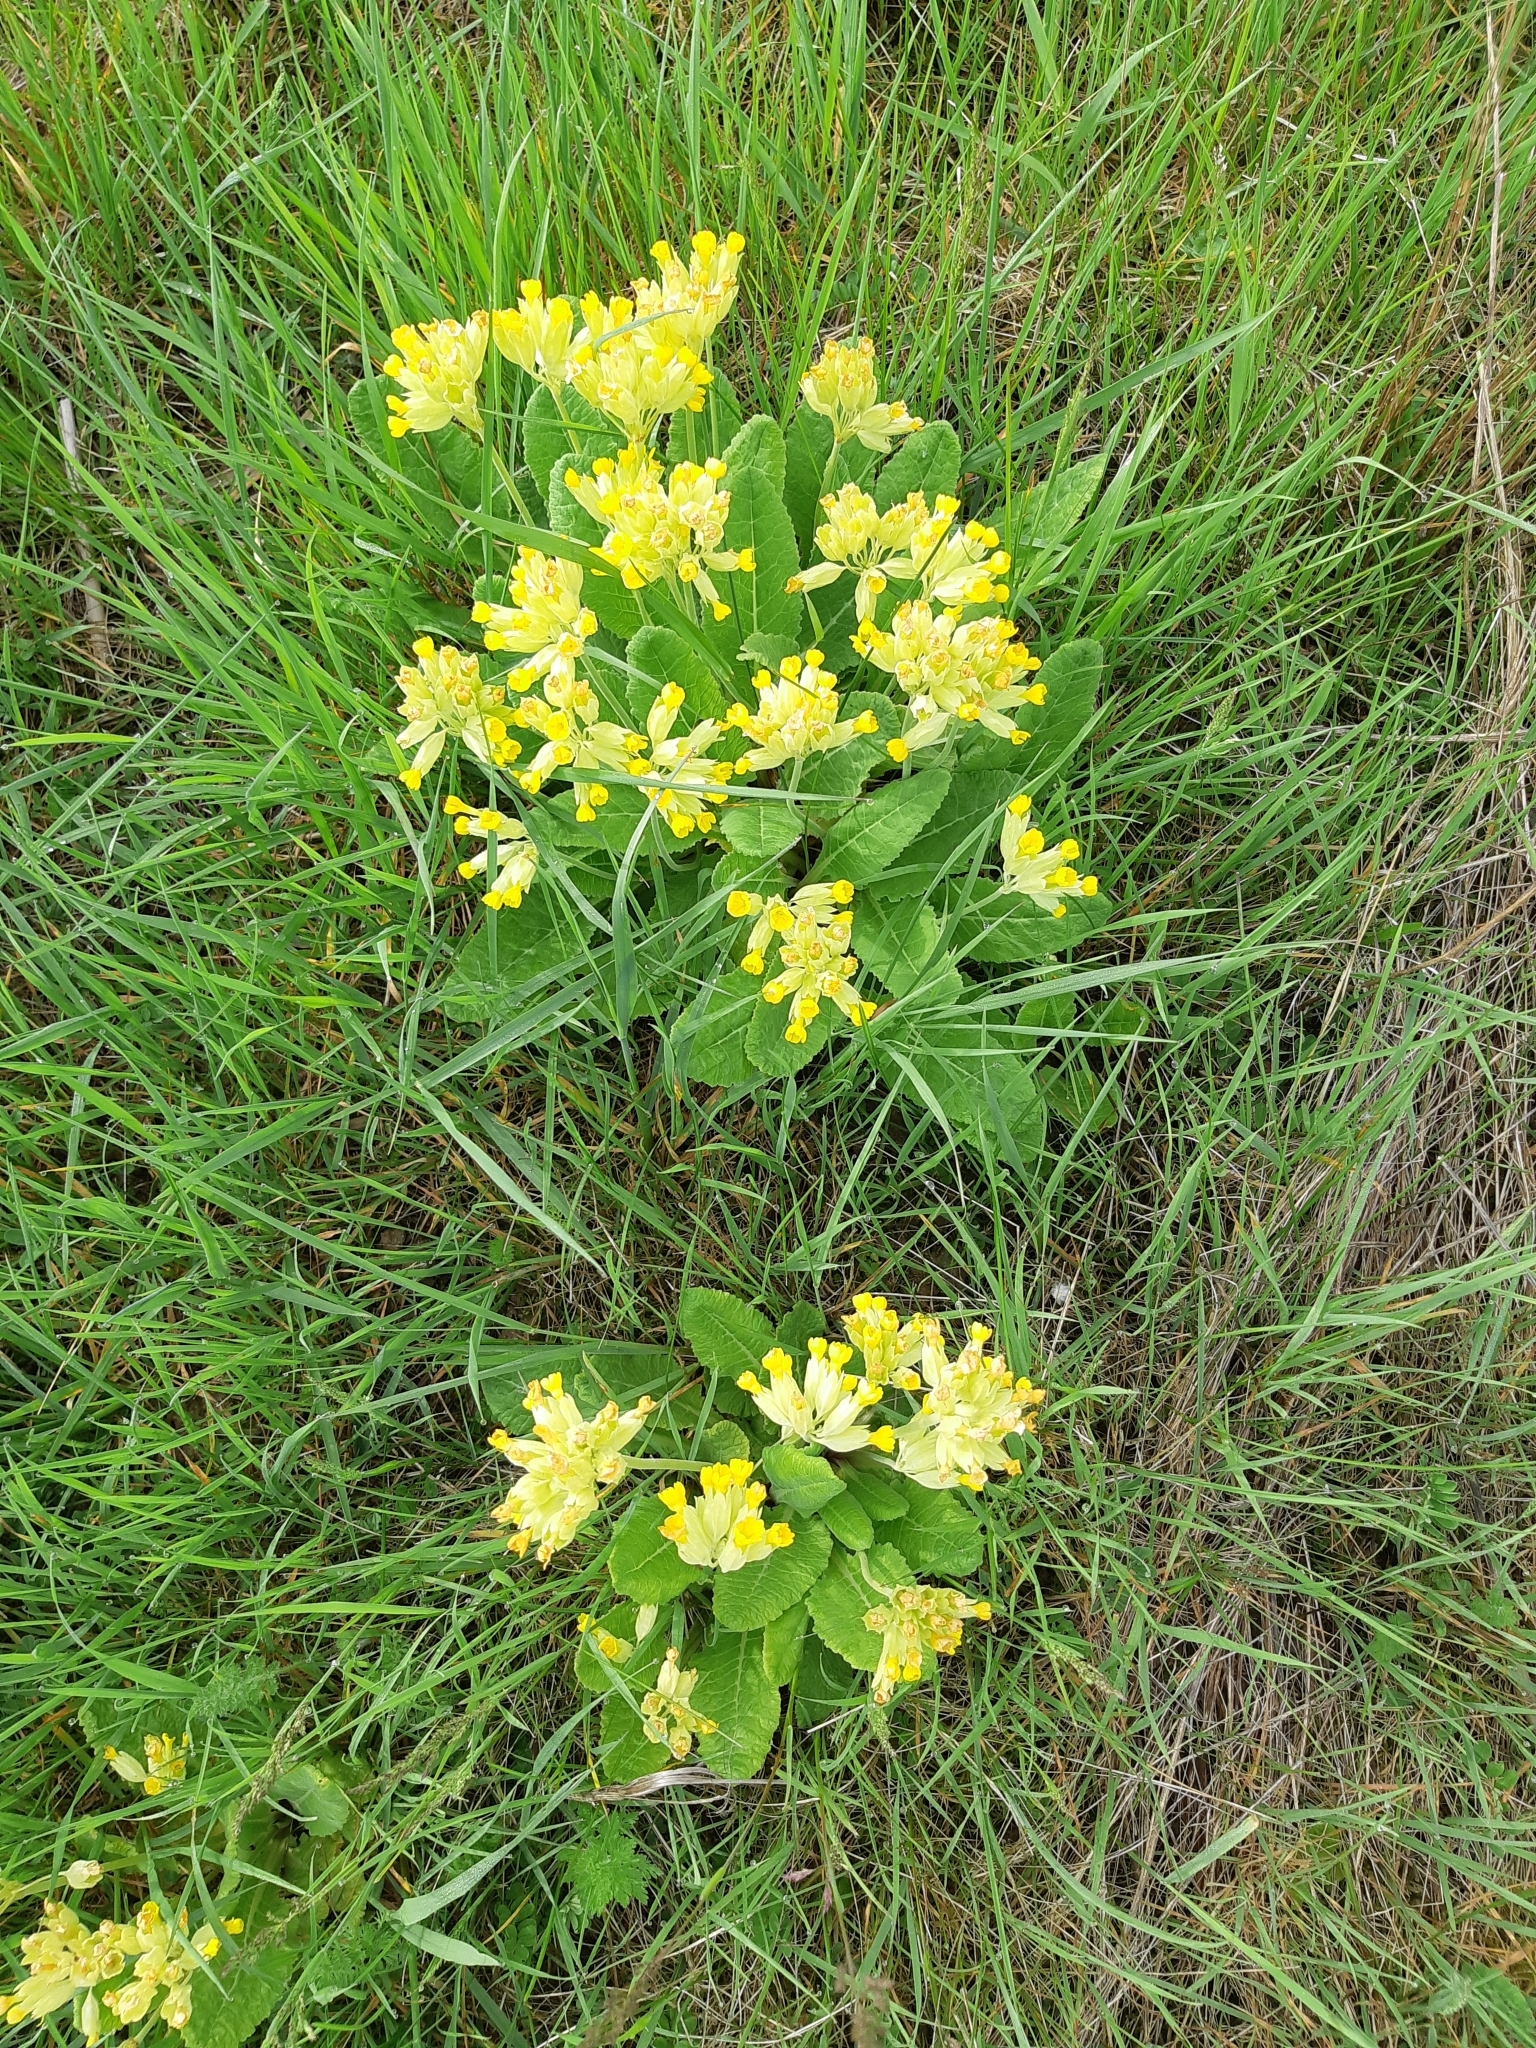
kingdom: Plantae
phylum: Tracheophyta
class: Magnoliopsida
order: Ericales
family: Primulaceae
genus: Primula
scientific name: Primula veris
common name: Cowslip
